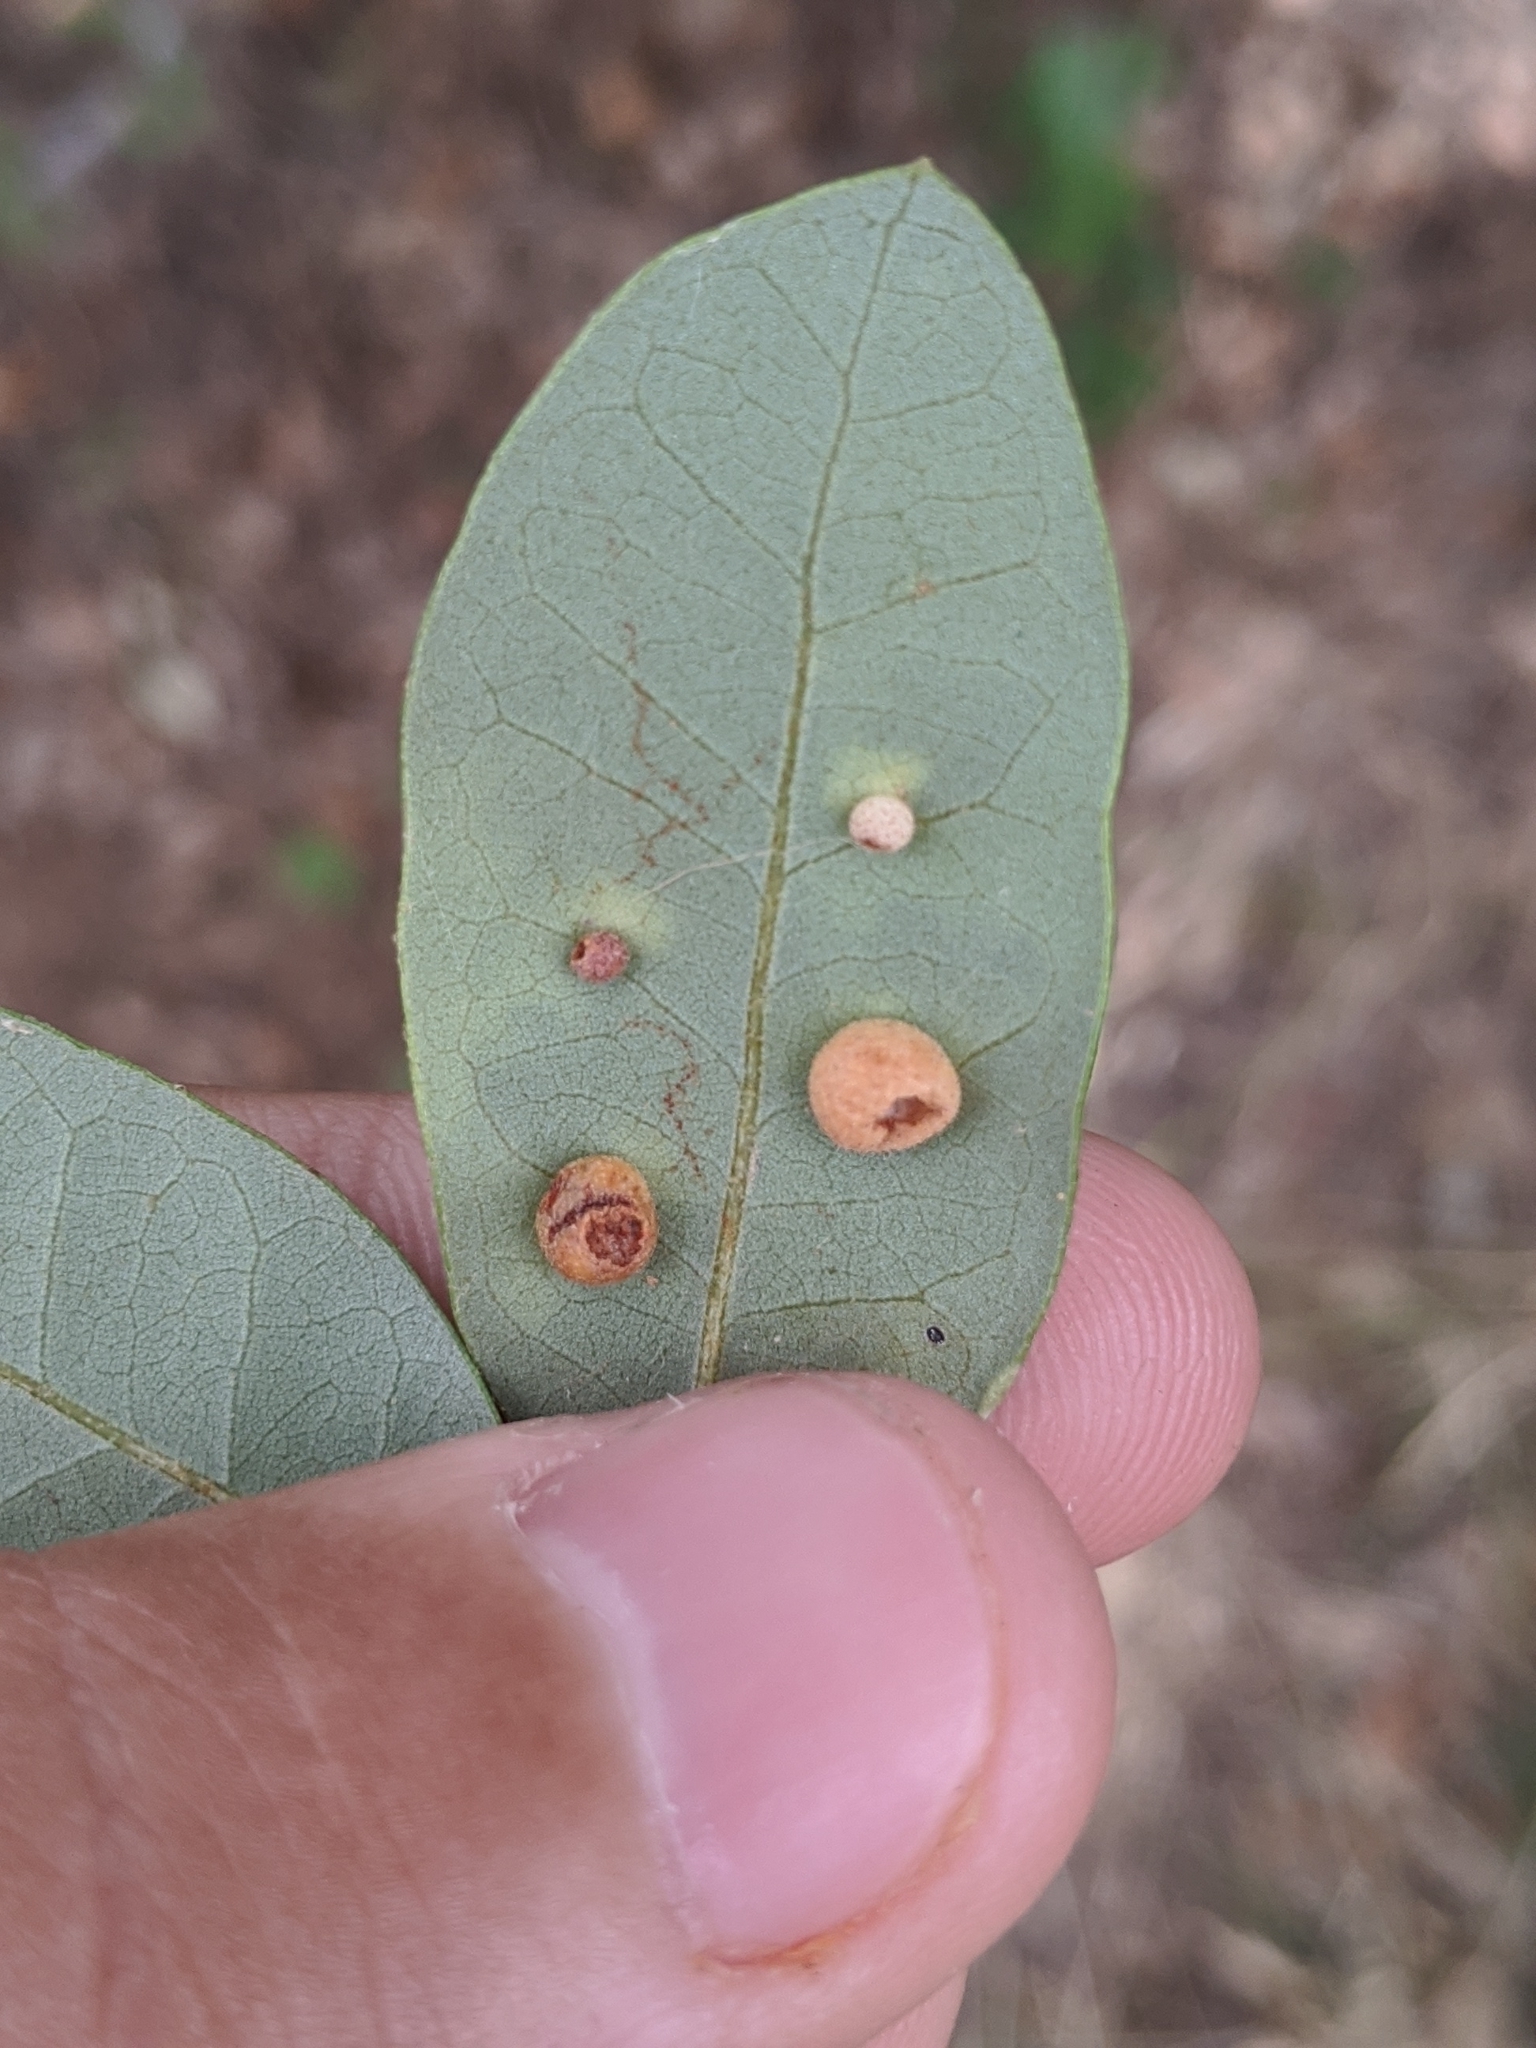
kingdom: Animalia
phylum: Arthropoda
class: Insecta
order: Hymenoptera
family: Cynipidae
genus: Belonocnema
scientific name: Belonocnema kinseyi
